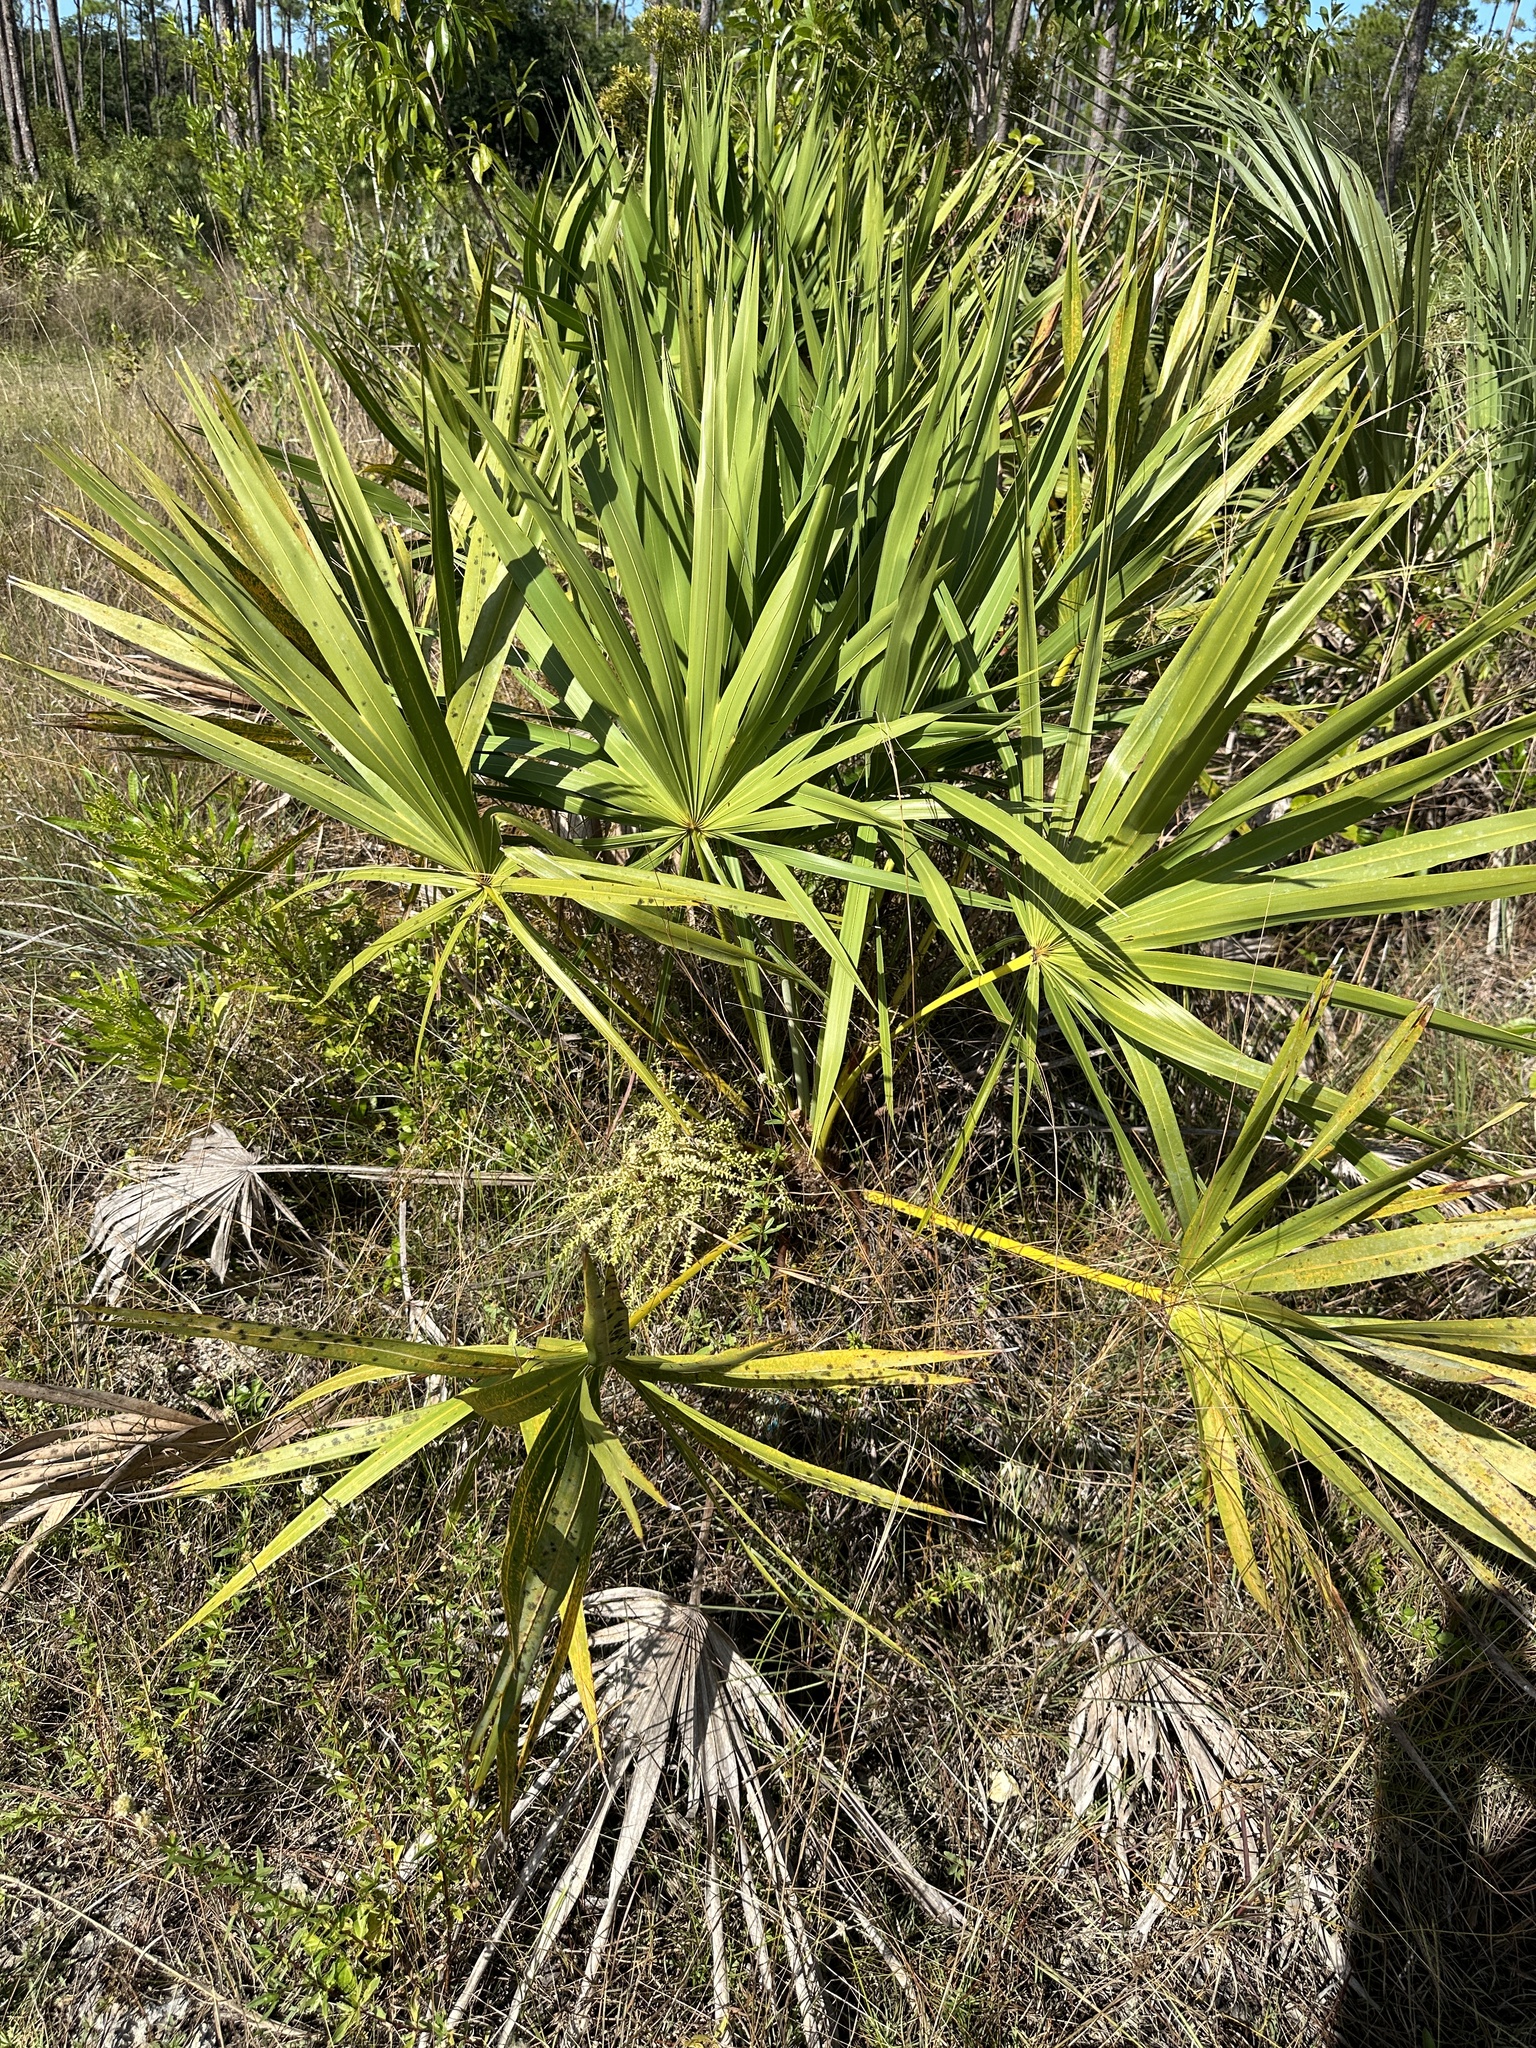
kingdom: Plantae
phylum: Tracheophyta
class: Liliopsida
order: Arecales
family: Arecaceae
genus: Serenoa
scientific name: Serenoa repens
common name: Saw-palmetto
